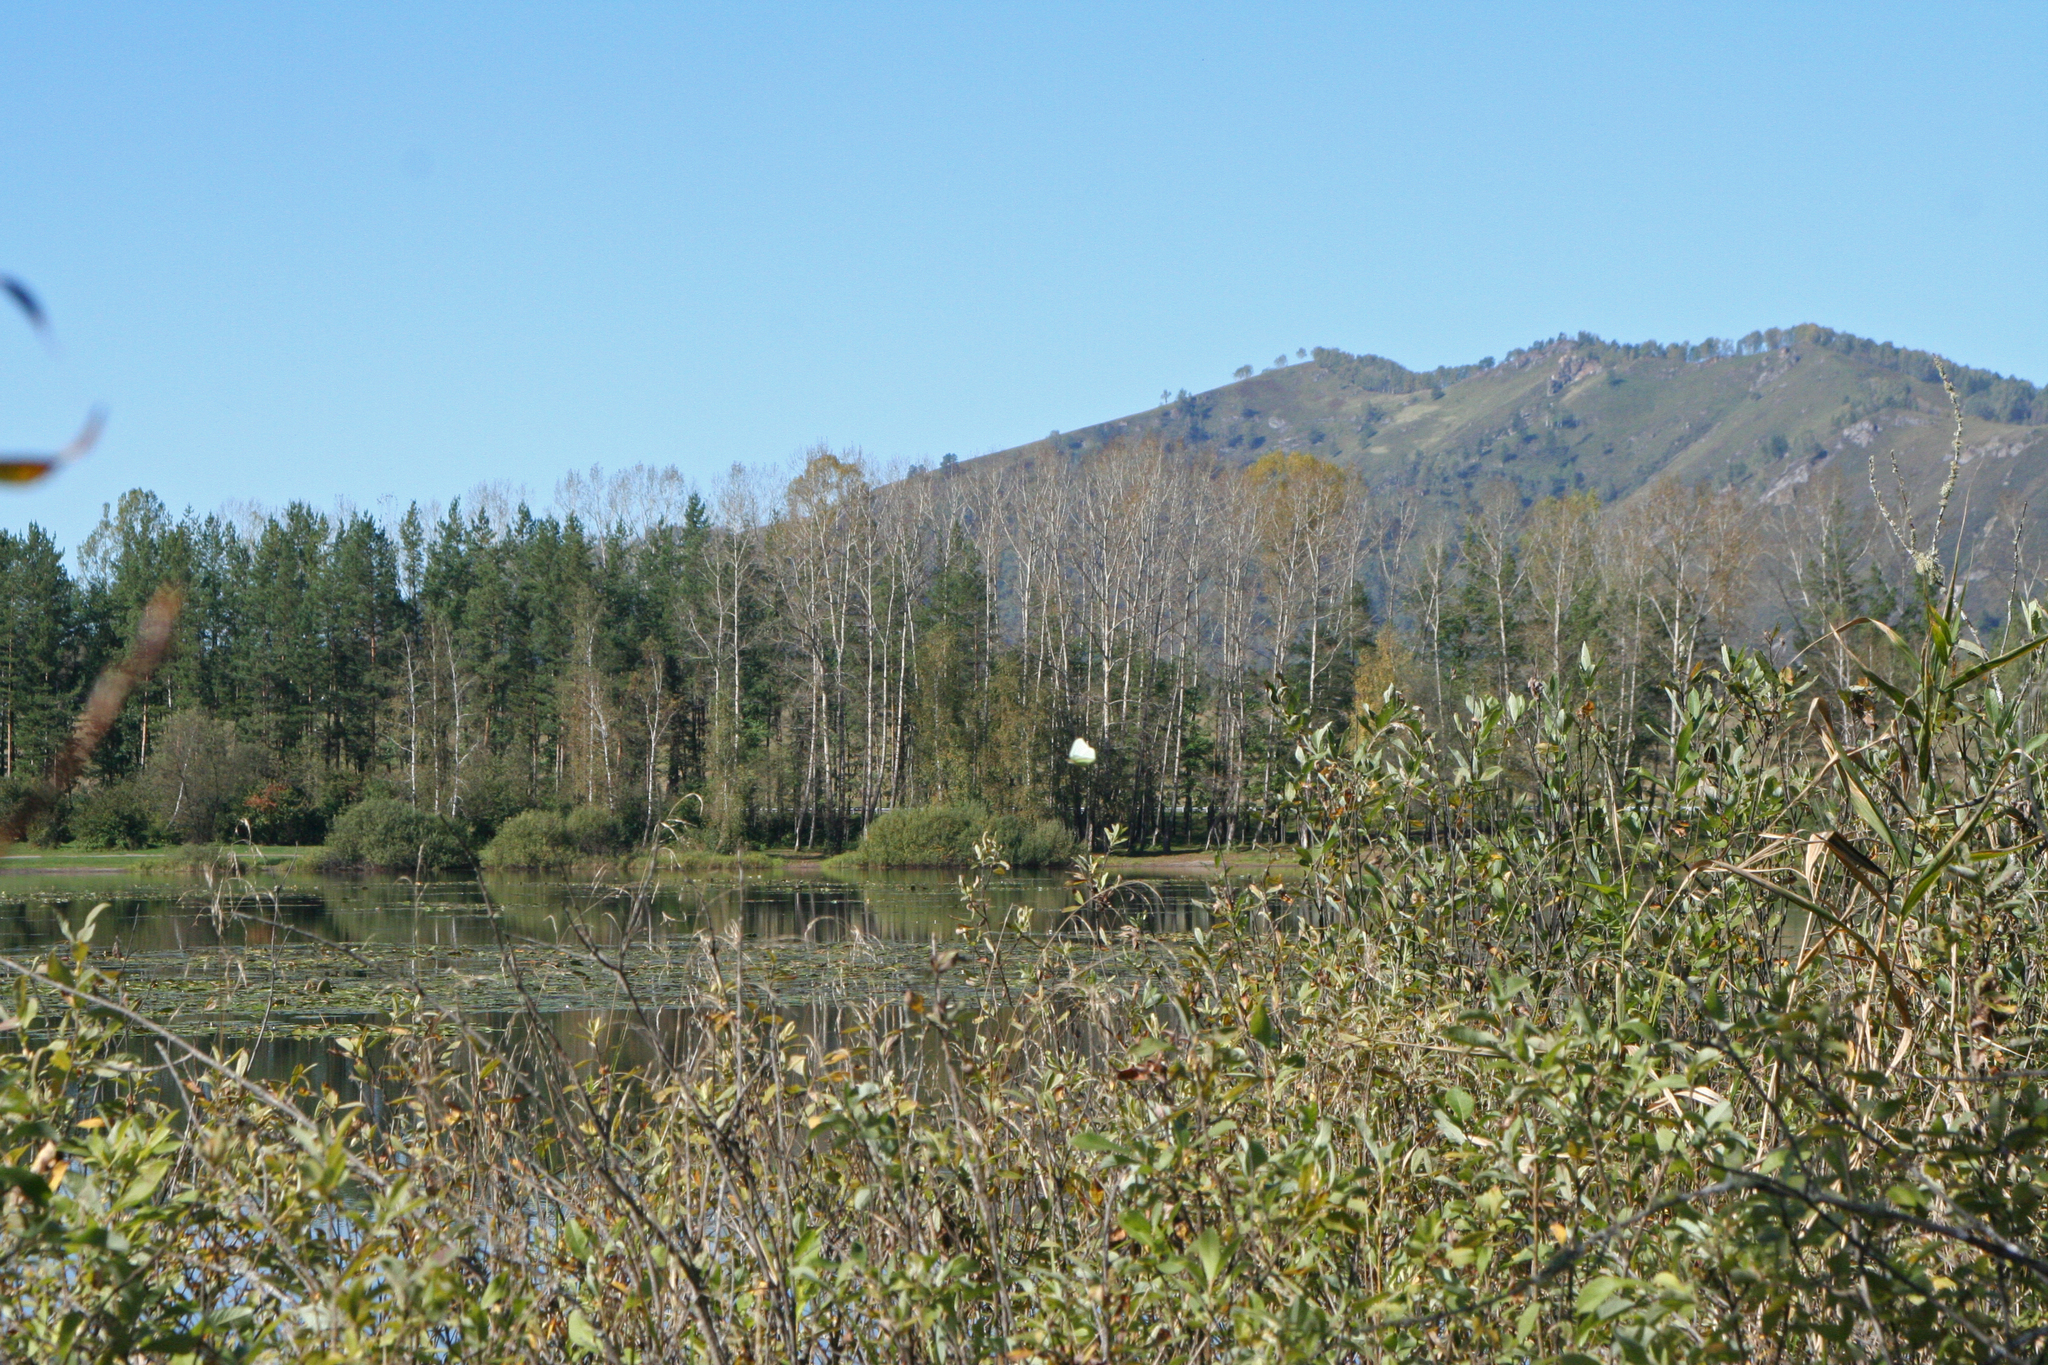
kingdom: Animalia
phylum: Arthropoda
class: Insecta
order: Lepidoptera
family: Pieridae
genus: Gonepteryx
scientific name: Gonepteryx rhamni
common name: Brimstone
